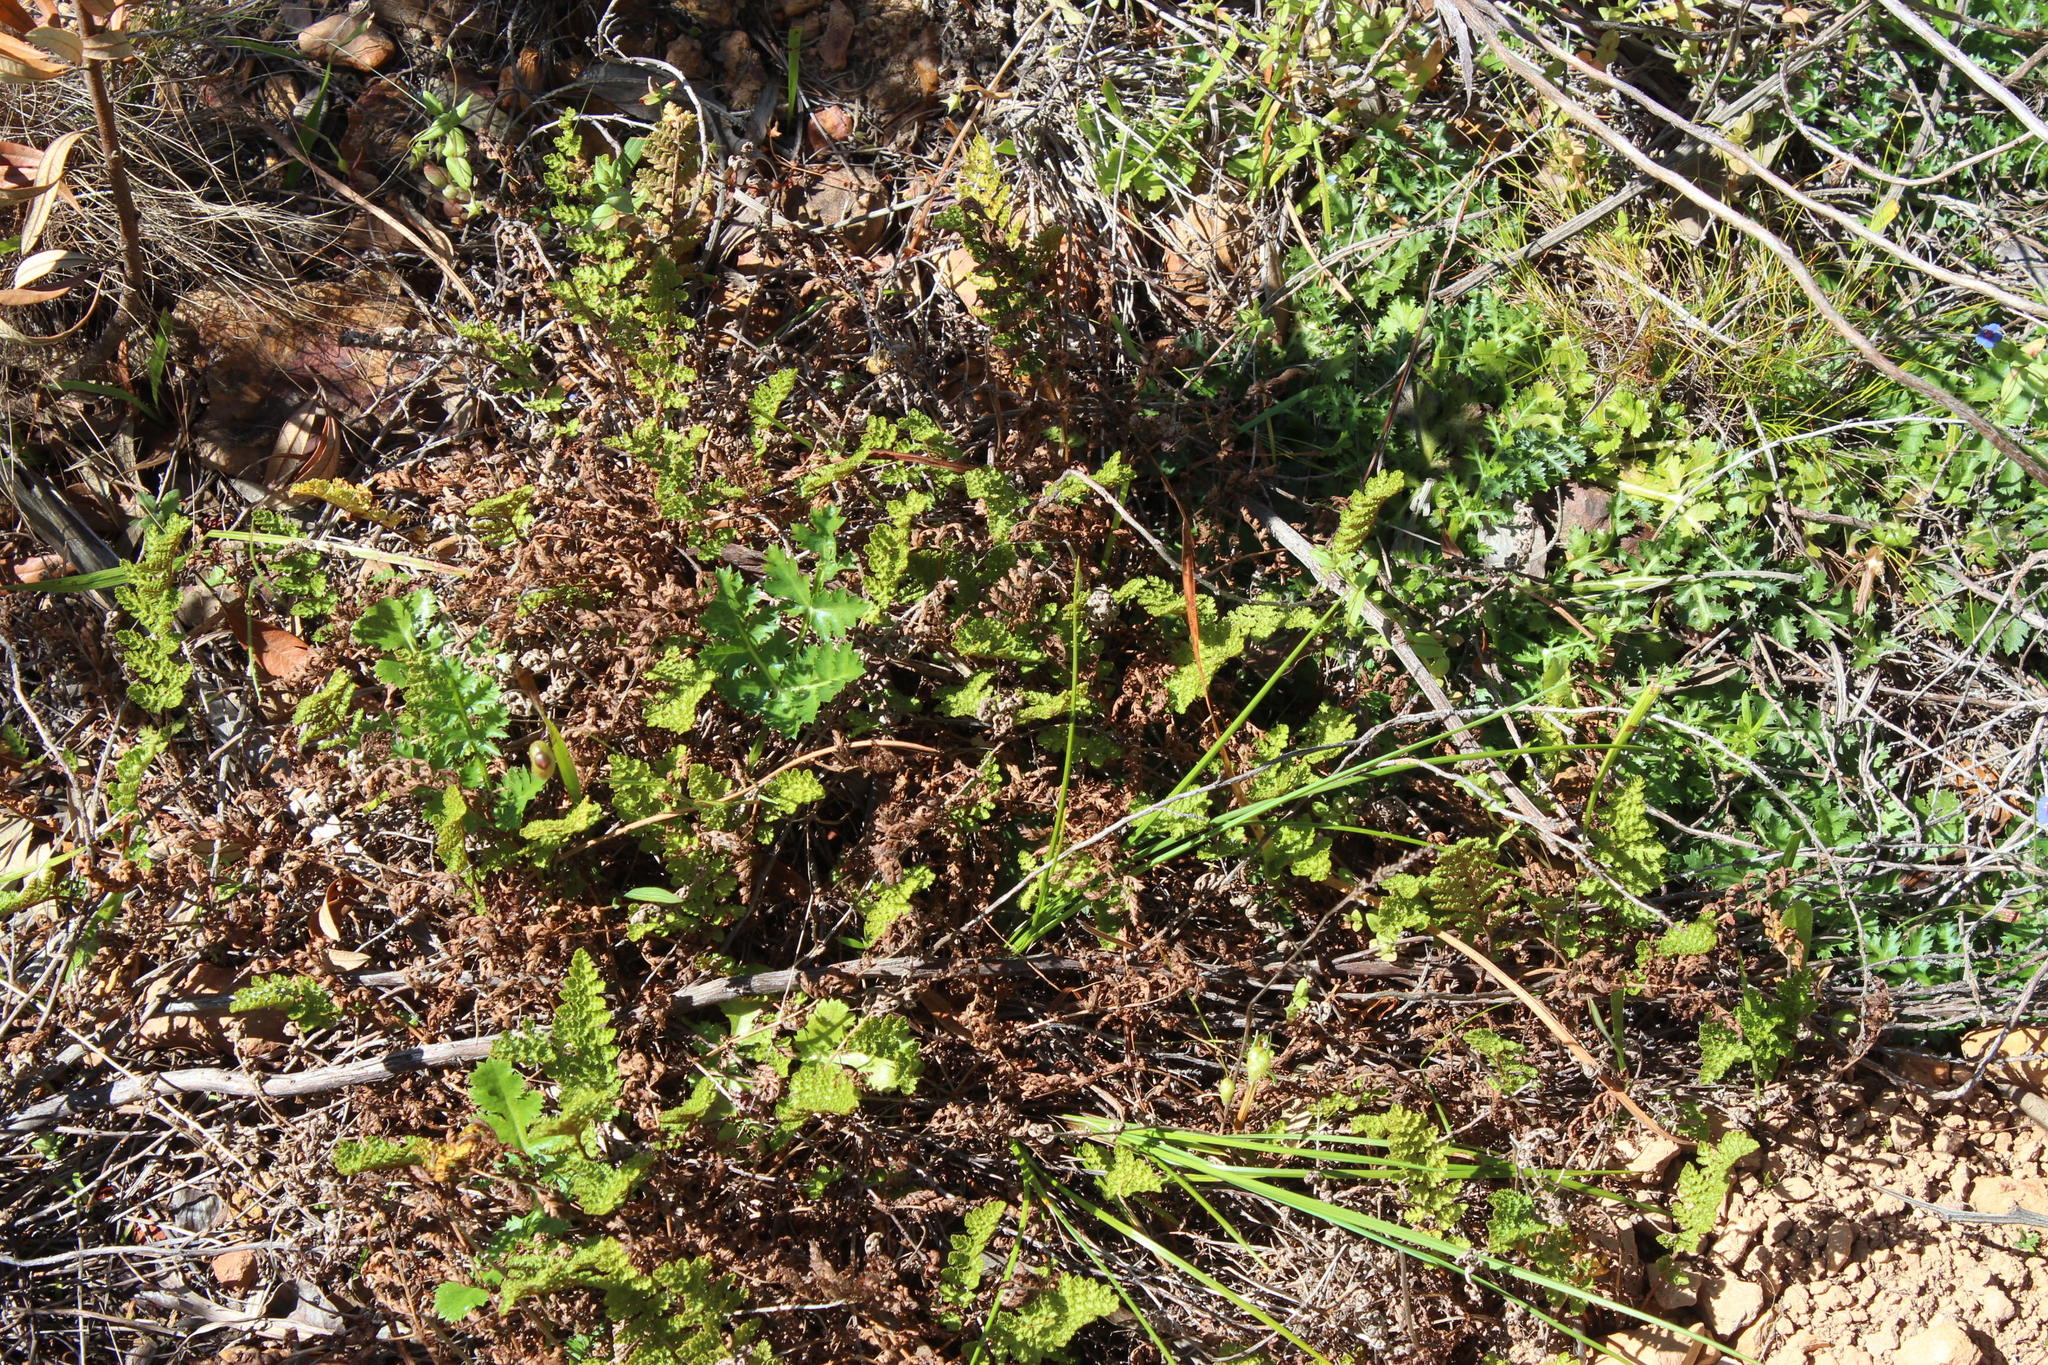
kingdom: Plantae
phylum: Tracheophyta
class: Polypodiopsida
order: Schizaeales
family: Anemiaceae
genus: Anemia
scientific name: Anemia caffrorum
